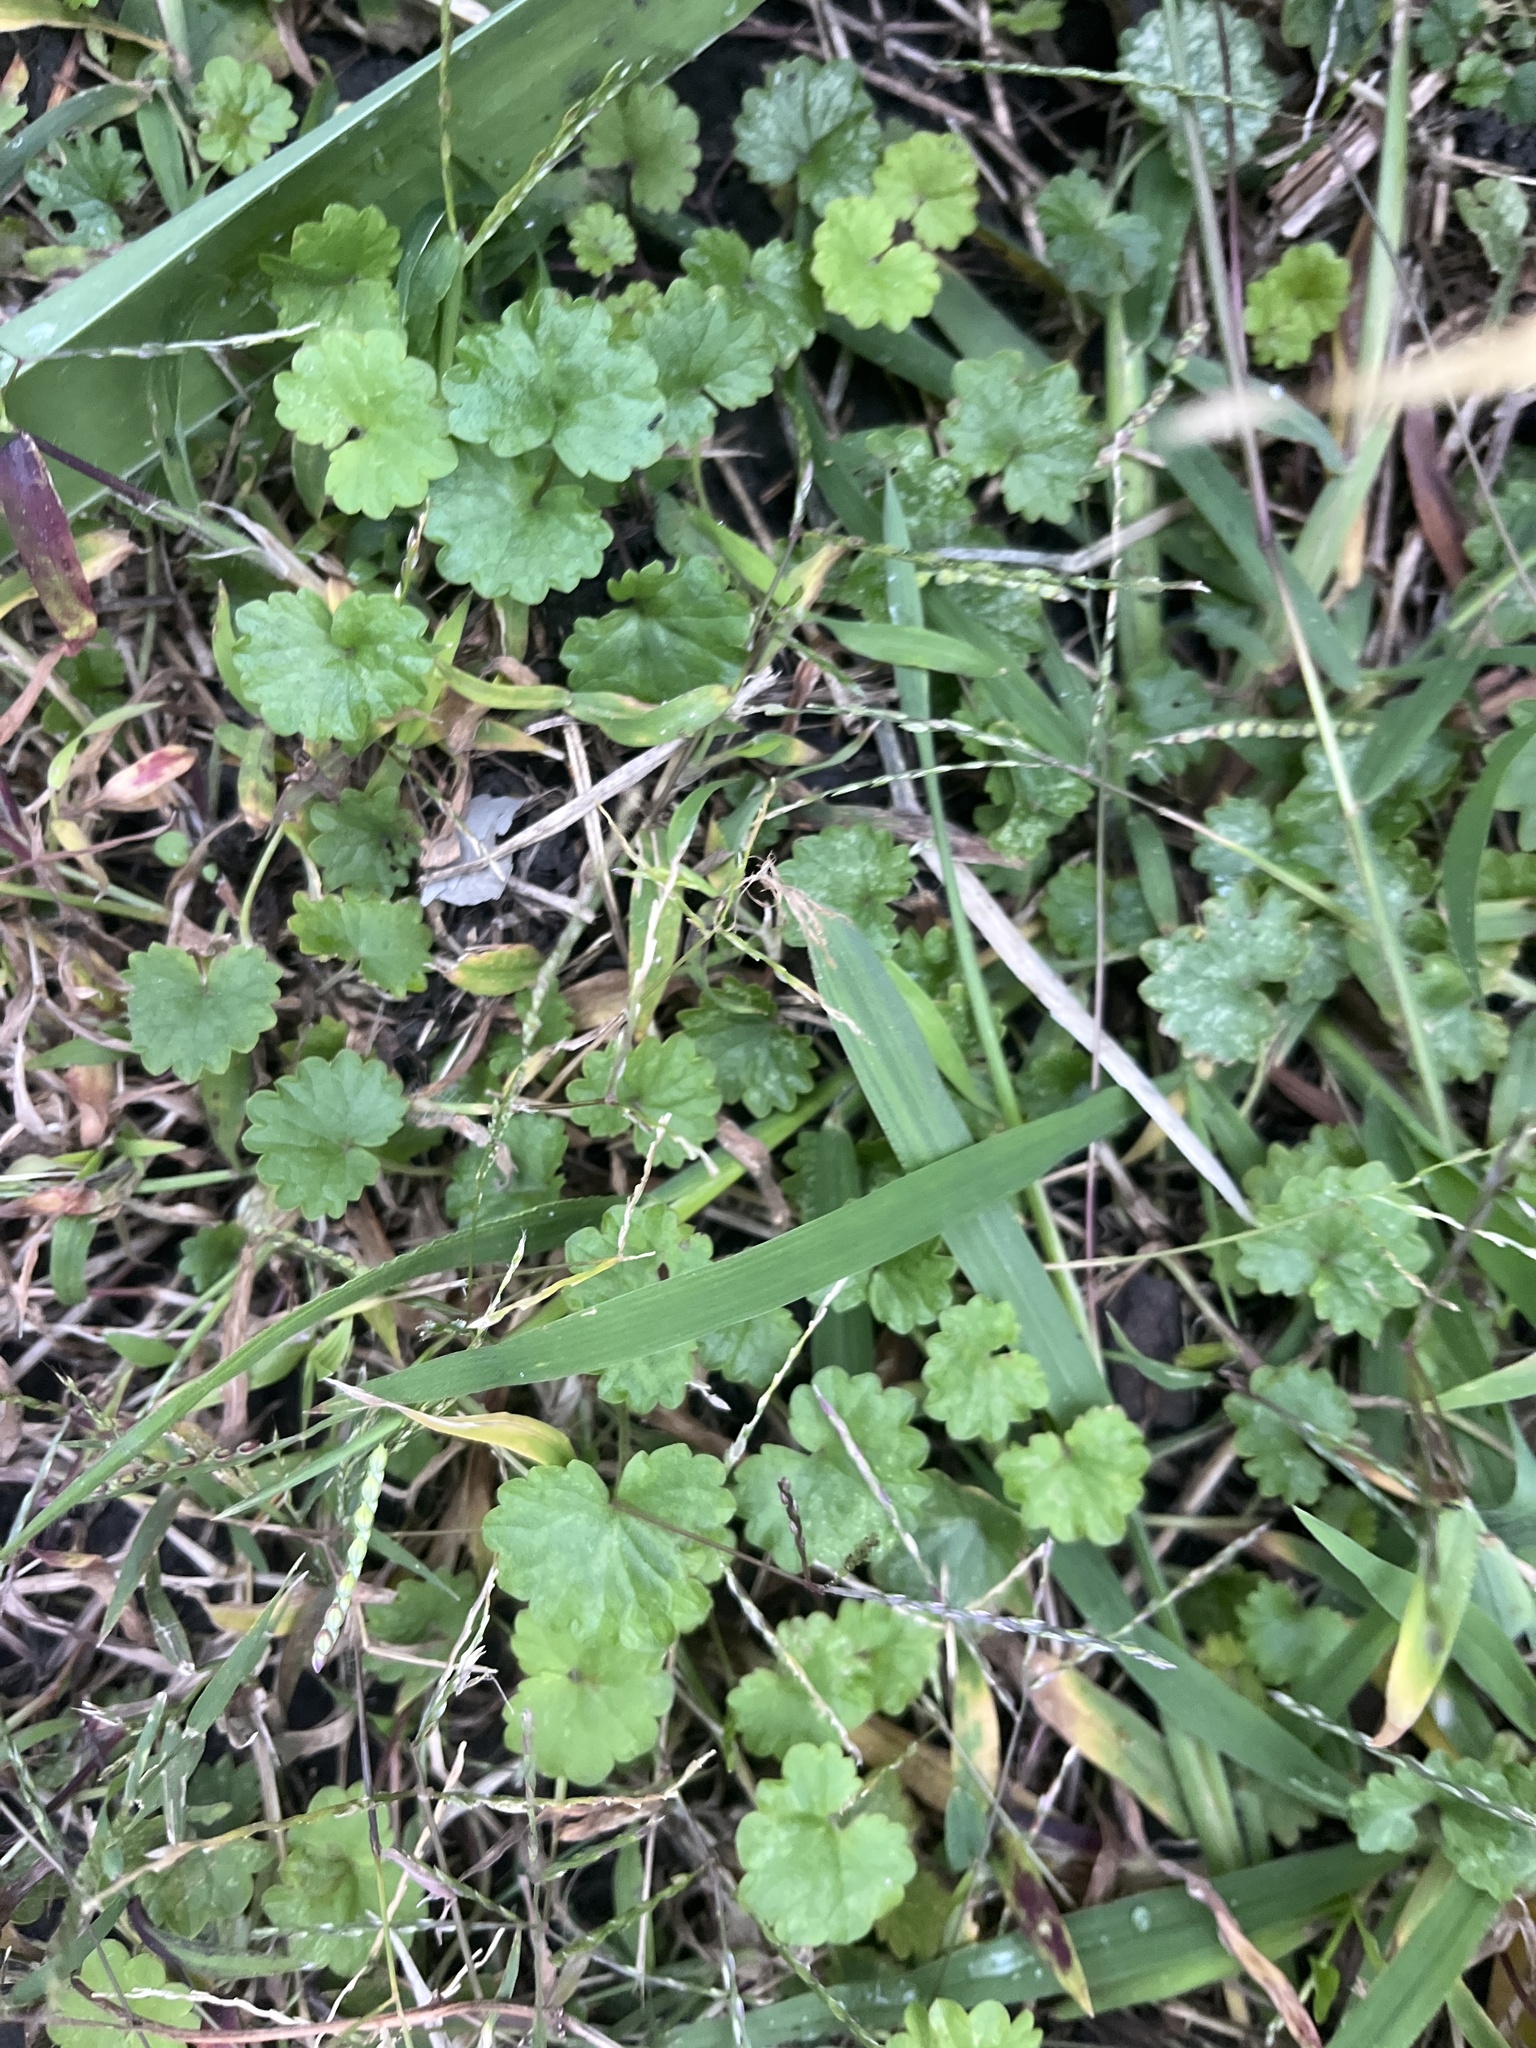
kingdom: Plantae
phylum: Tracheophyta
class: Magnoliopsida
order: Lamiales
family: Lamiaceae
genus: Glechoma
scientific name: Glechoma hederacea
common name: Ground ivy
